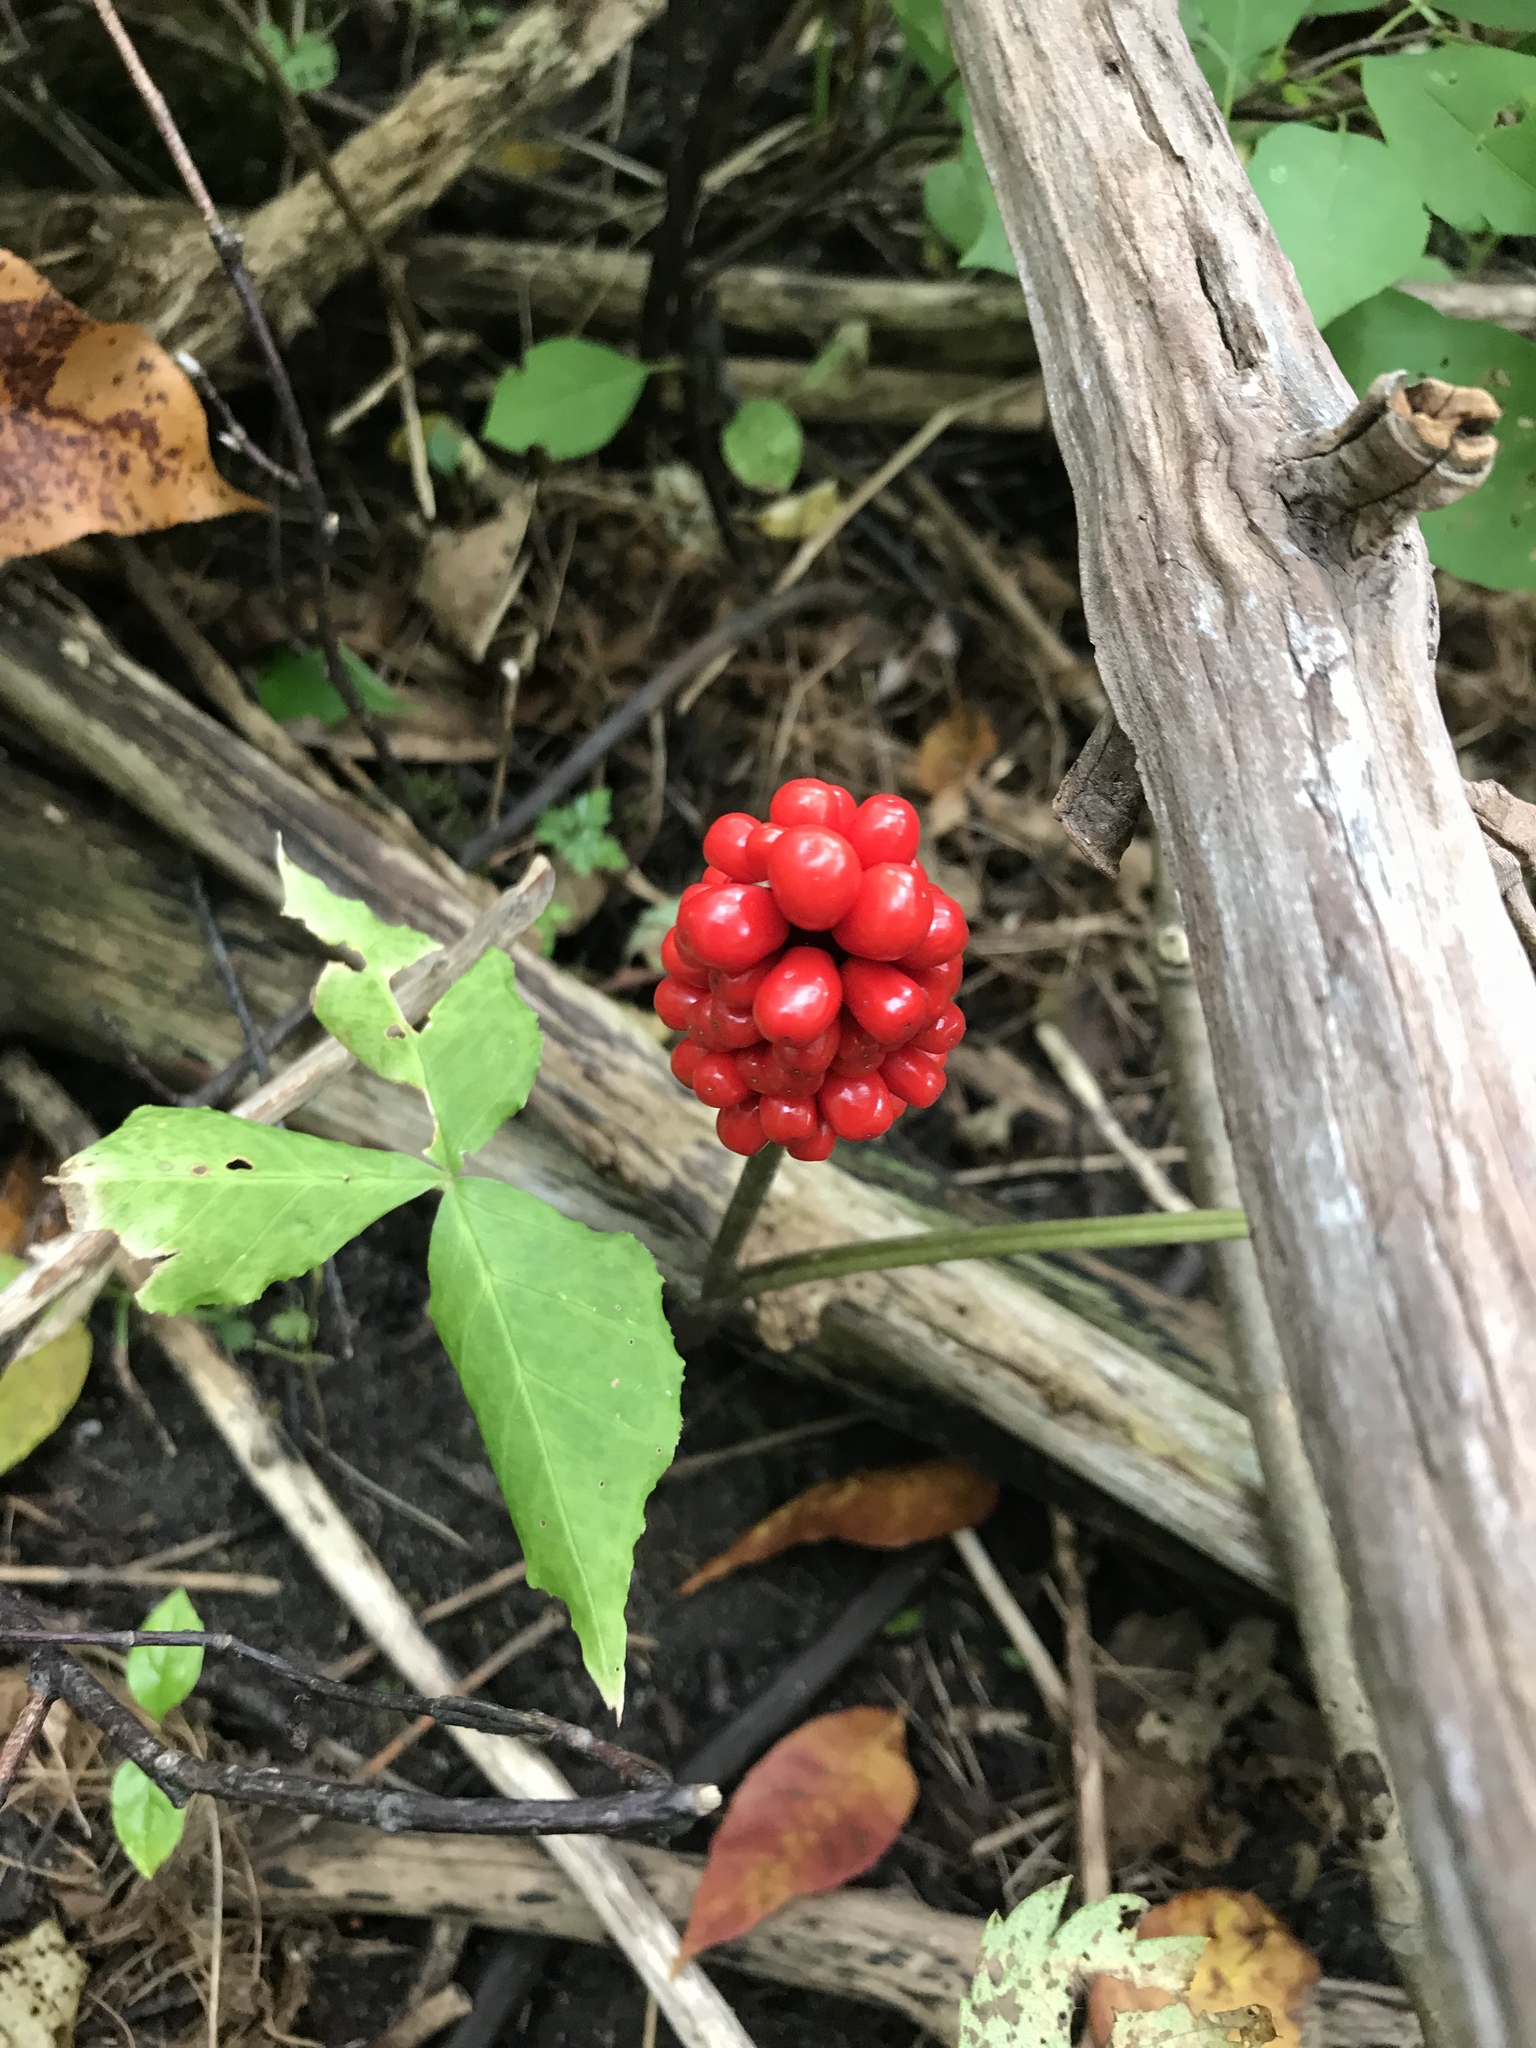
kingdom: Plantae
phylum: Tracheophyta
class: Liliopsida
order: Alismatales
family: Araceae
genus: Arisaema
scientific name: Arisaema triphyllum
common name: Jack-in-the-pulpit
